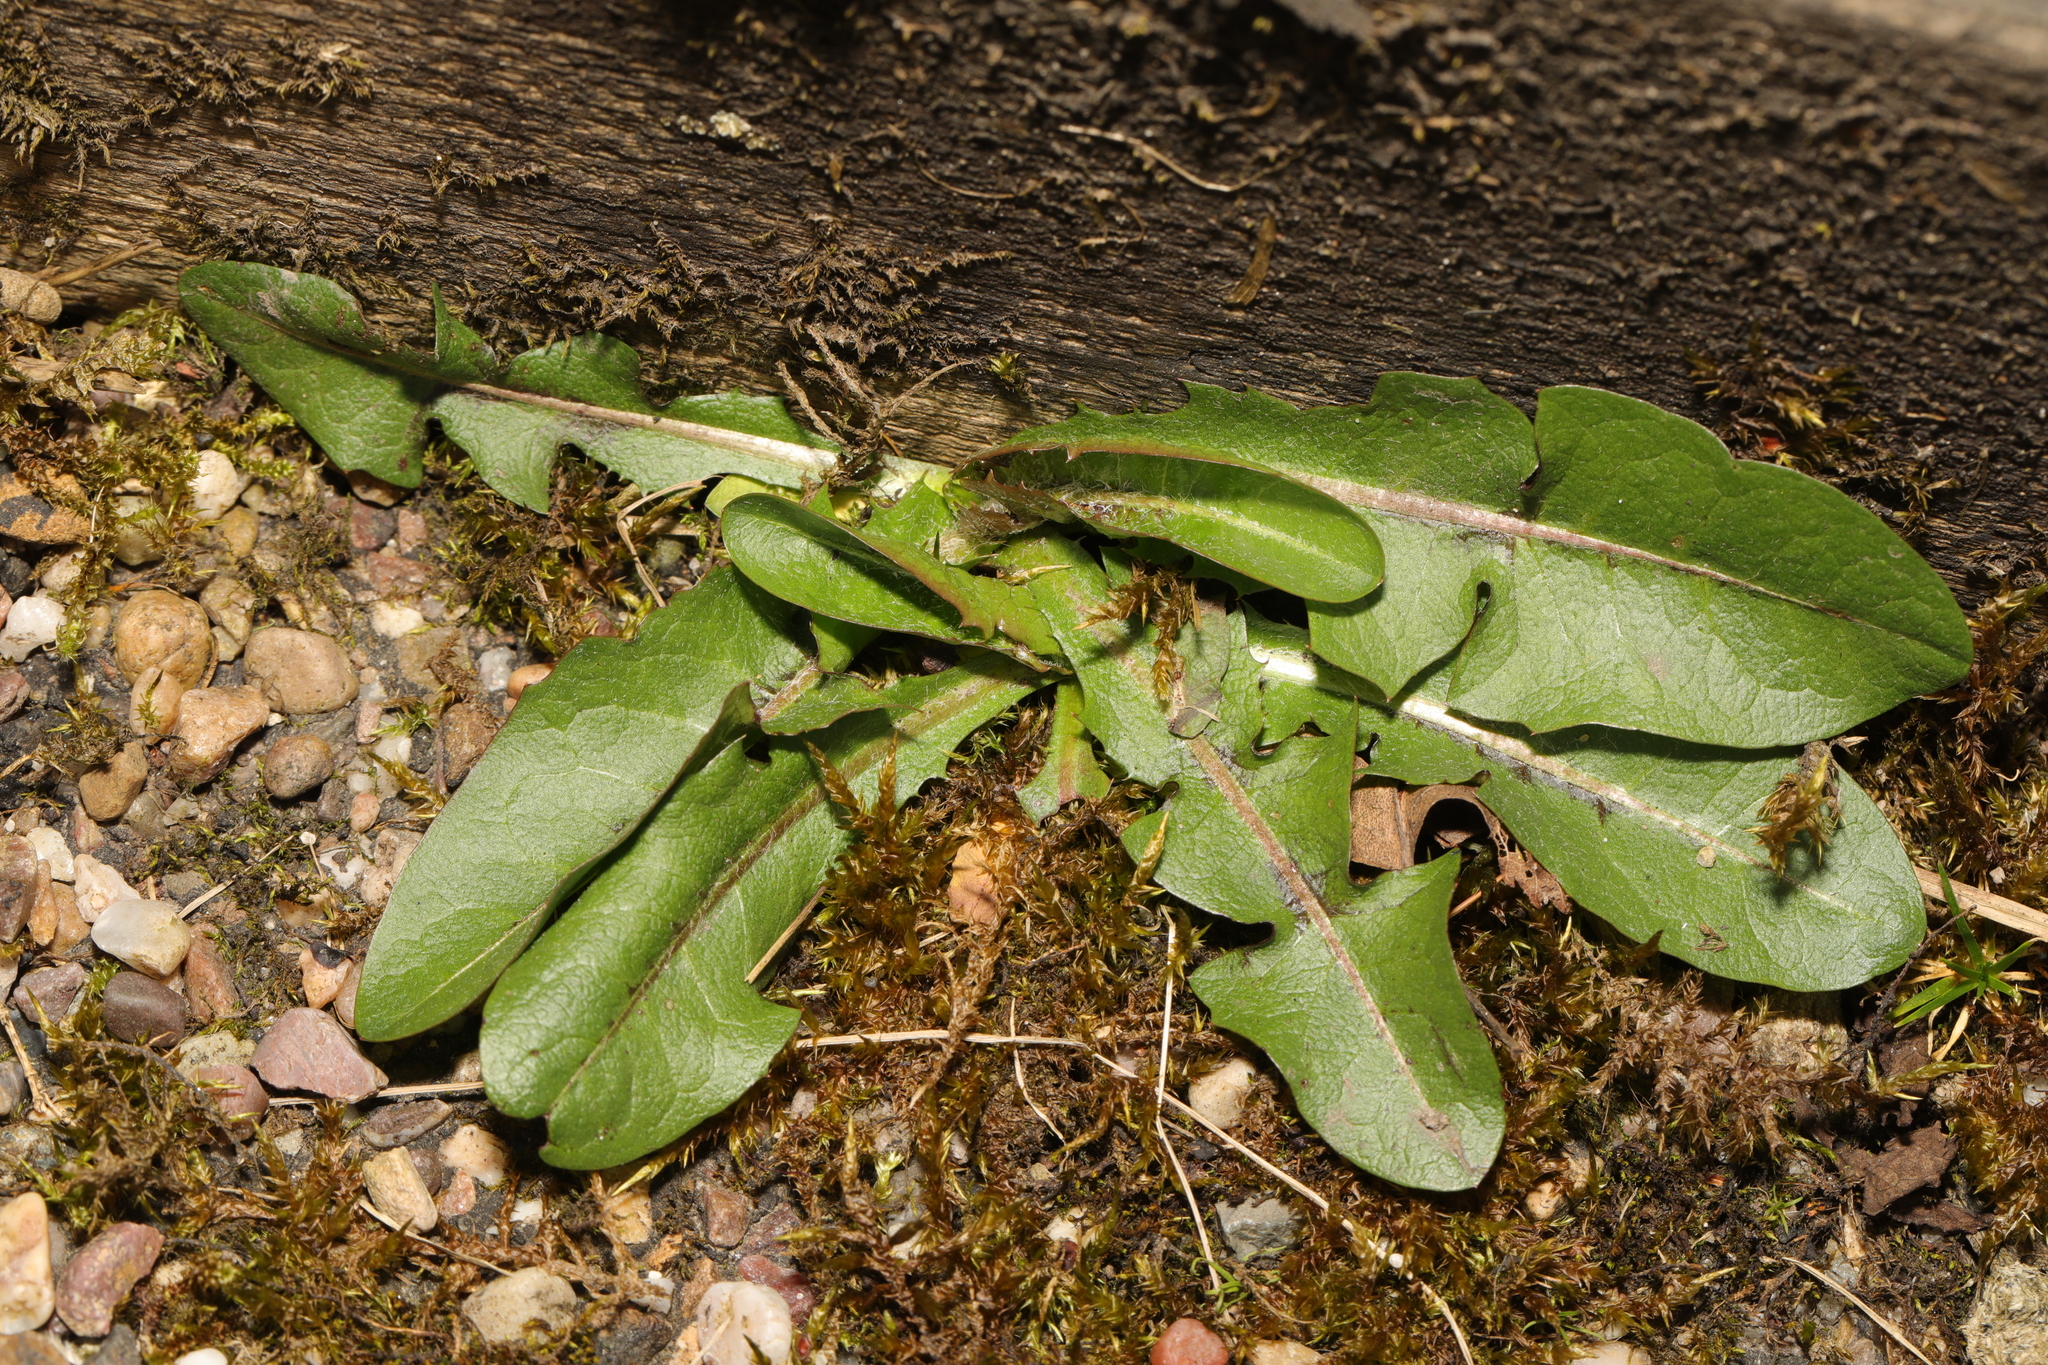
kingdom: Plantae
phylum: Tracheophyta
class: Magnoliopsida
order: Asterales
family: Asteraceae
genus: Taraxacum
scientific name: Taraxacum officinale
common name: Common dandelion
